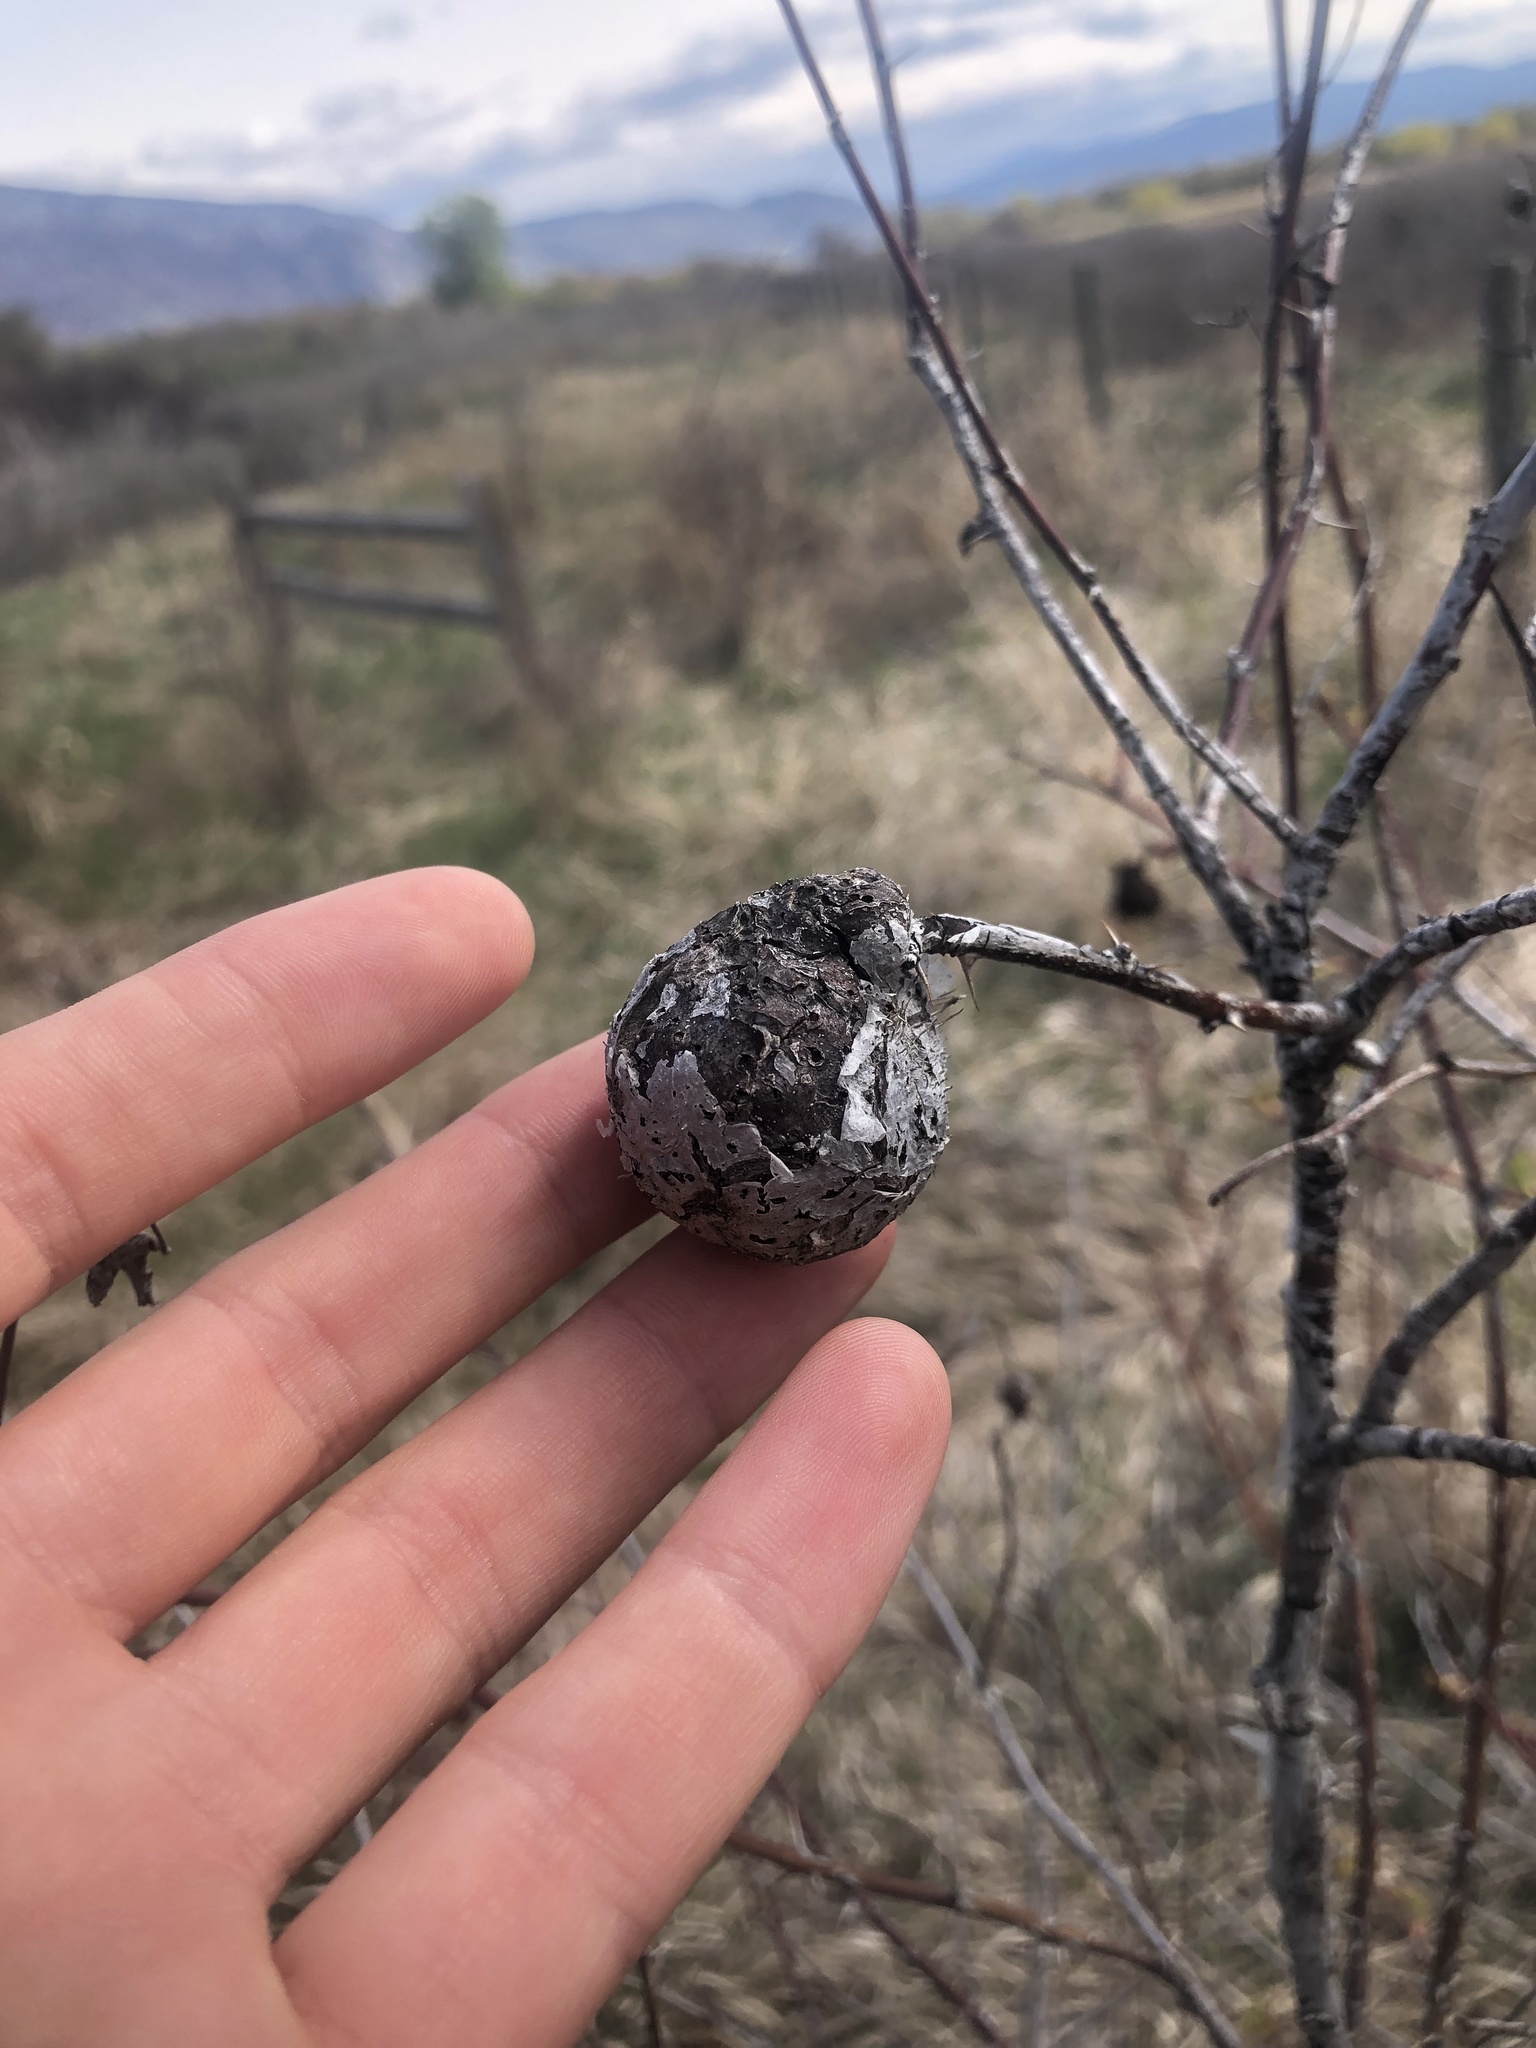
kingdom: Animalia
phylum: Arthropoda
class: Insecta
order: Hymenoptera
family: Cynipidae
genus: Diplolepis
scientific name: Diplolepis spinosa
